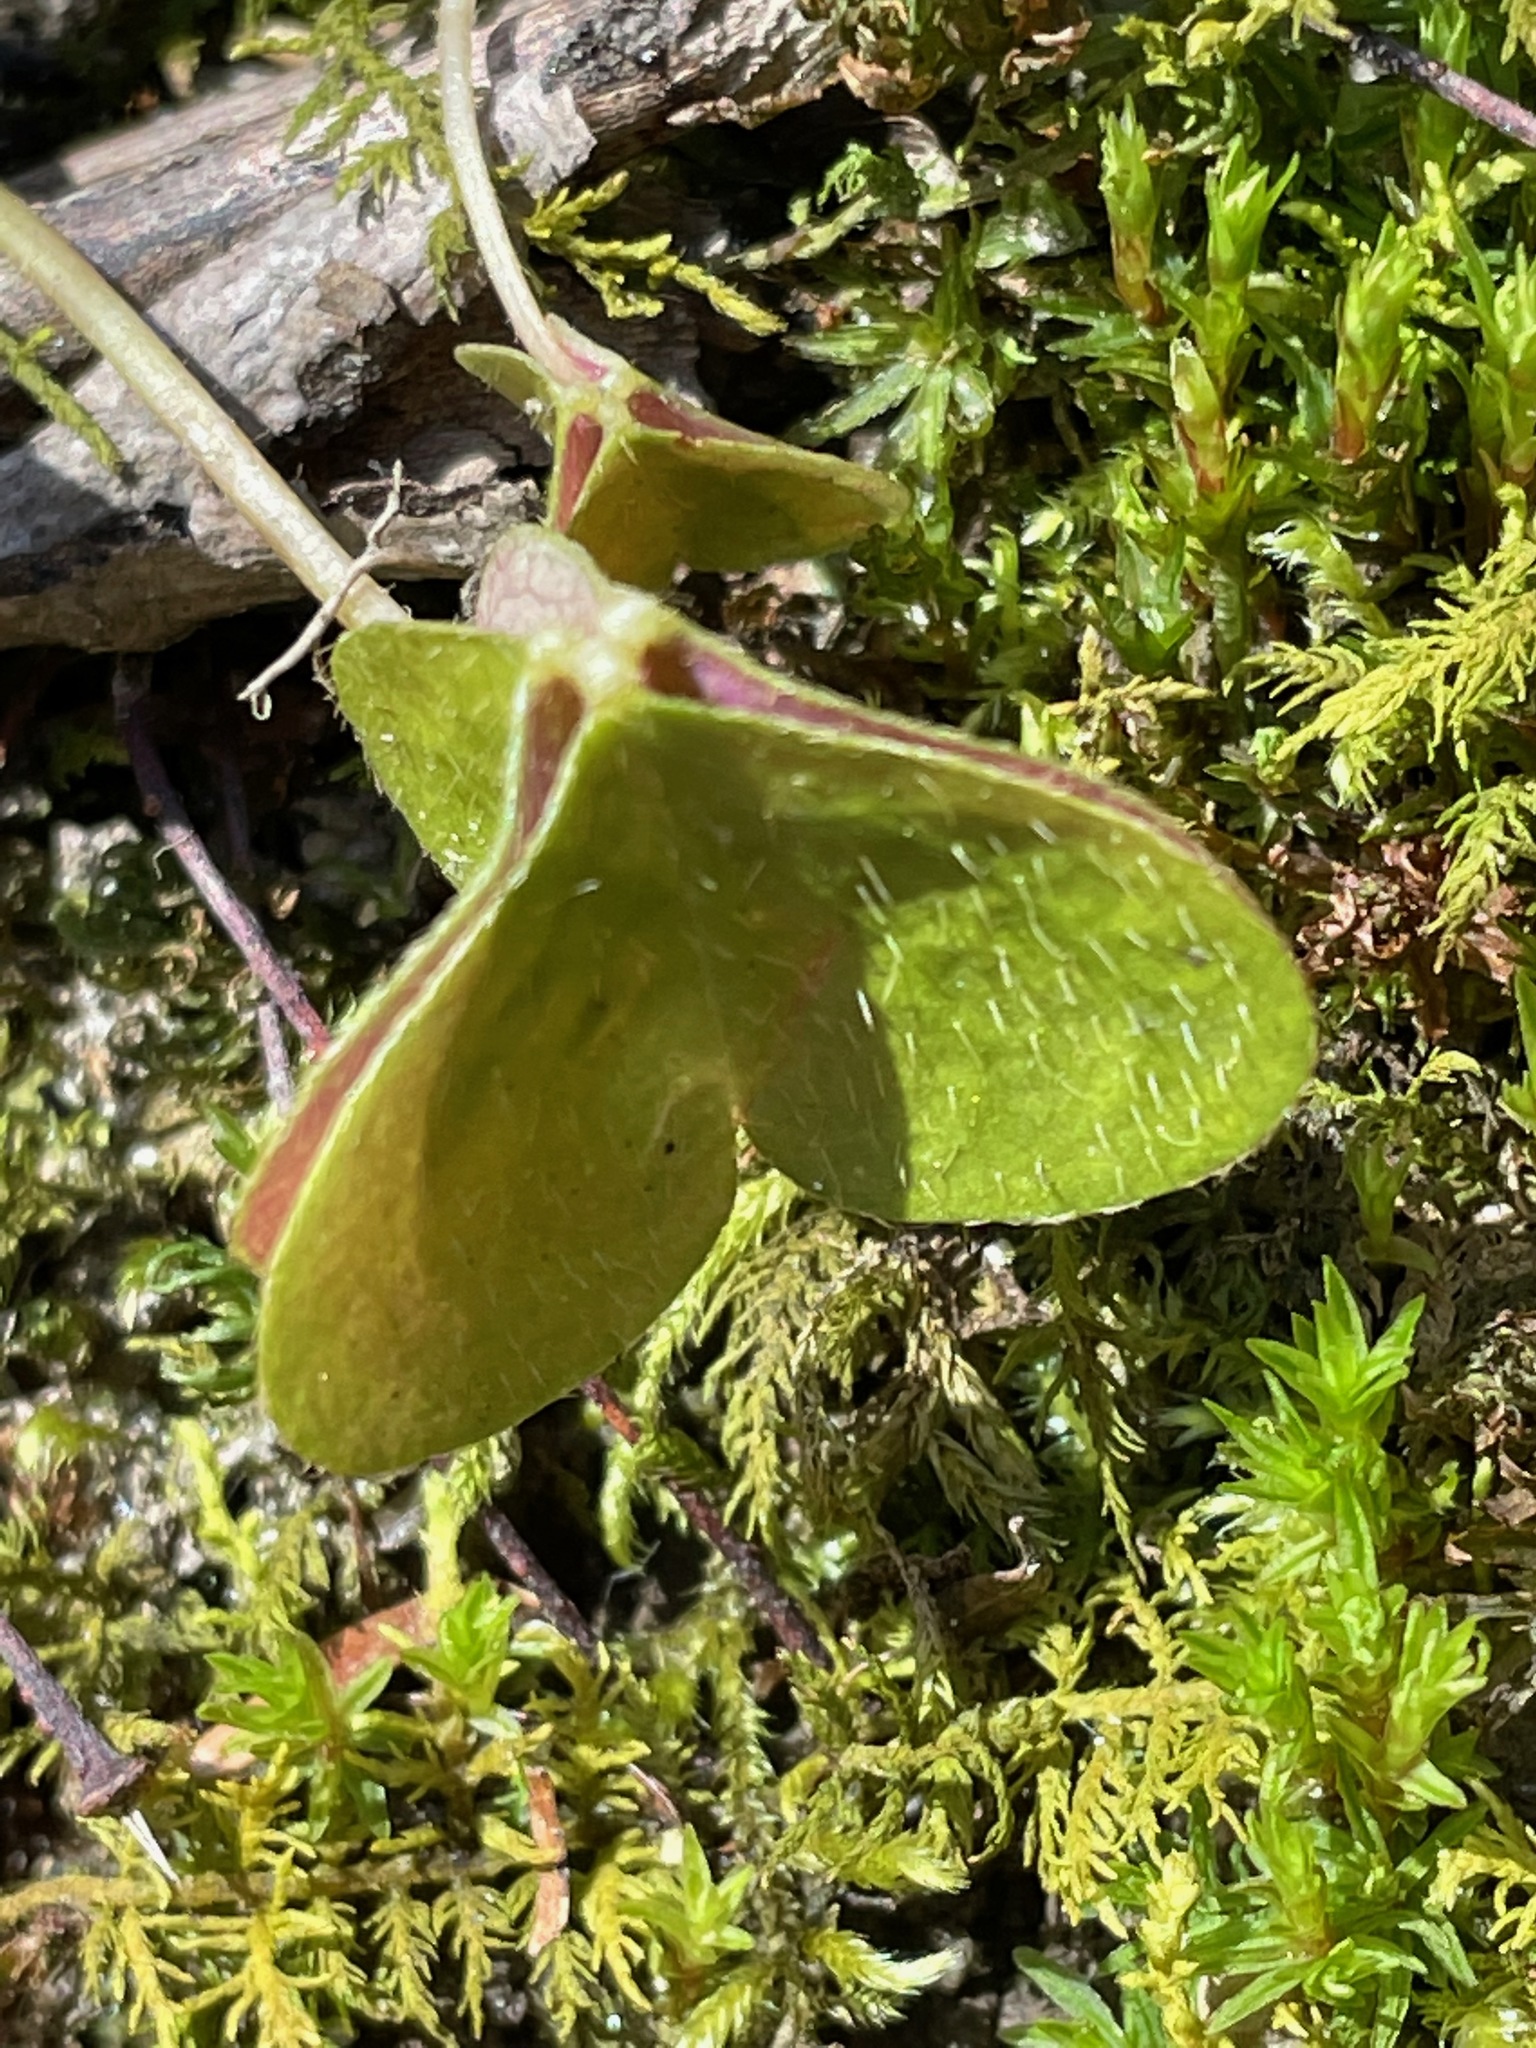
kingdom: Plantae
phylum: Tracheophyta
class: Magnoliopsida
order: Oxalidales
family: Oxalidaceae
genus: Oxalis
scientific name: Oxalis montana
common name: American wood-sorrel
